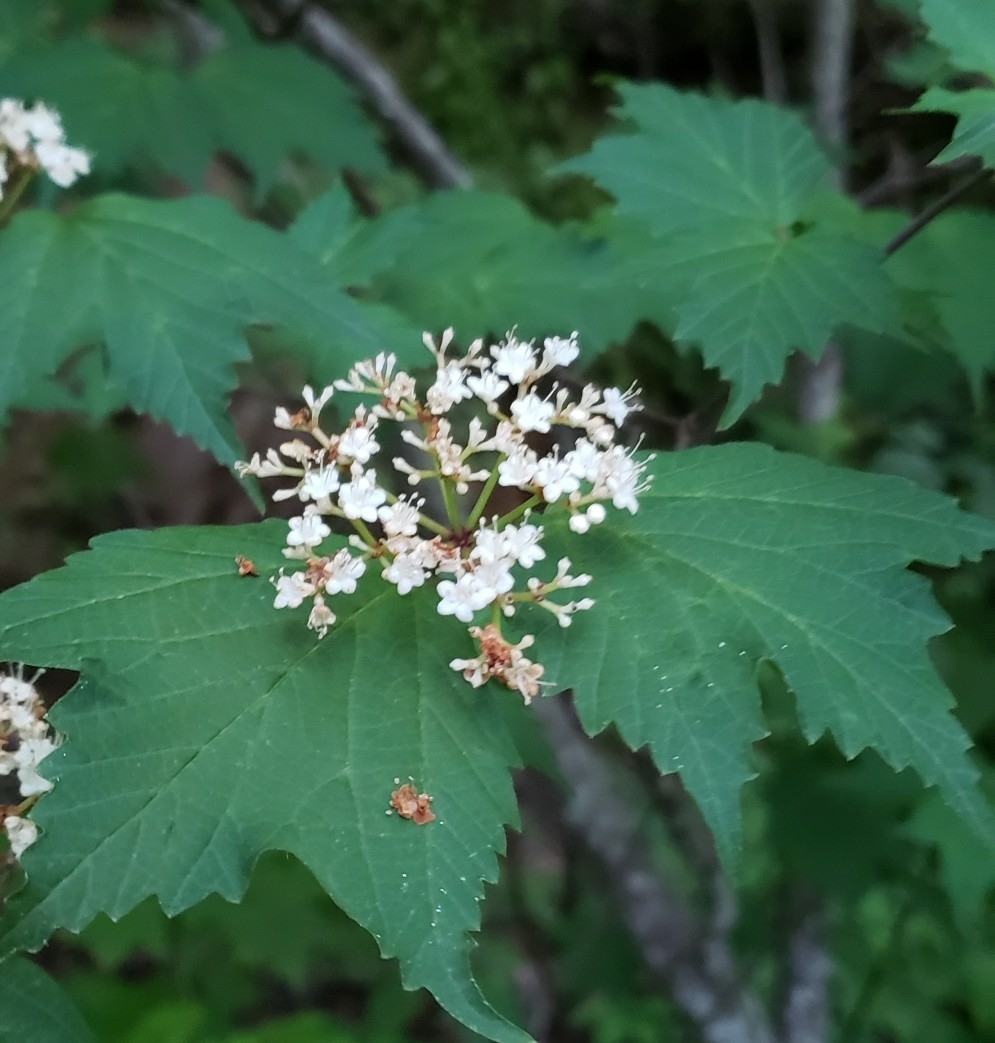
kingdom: Plantae
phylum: Tracheophyta
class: Magnoliopsida
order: Dipsacales
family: Viburnaceae
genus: Viburnum
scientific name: Viburnum acerifolium
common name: Dockmackie
